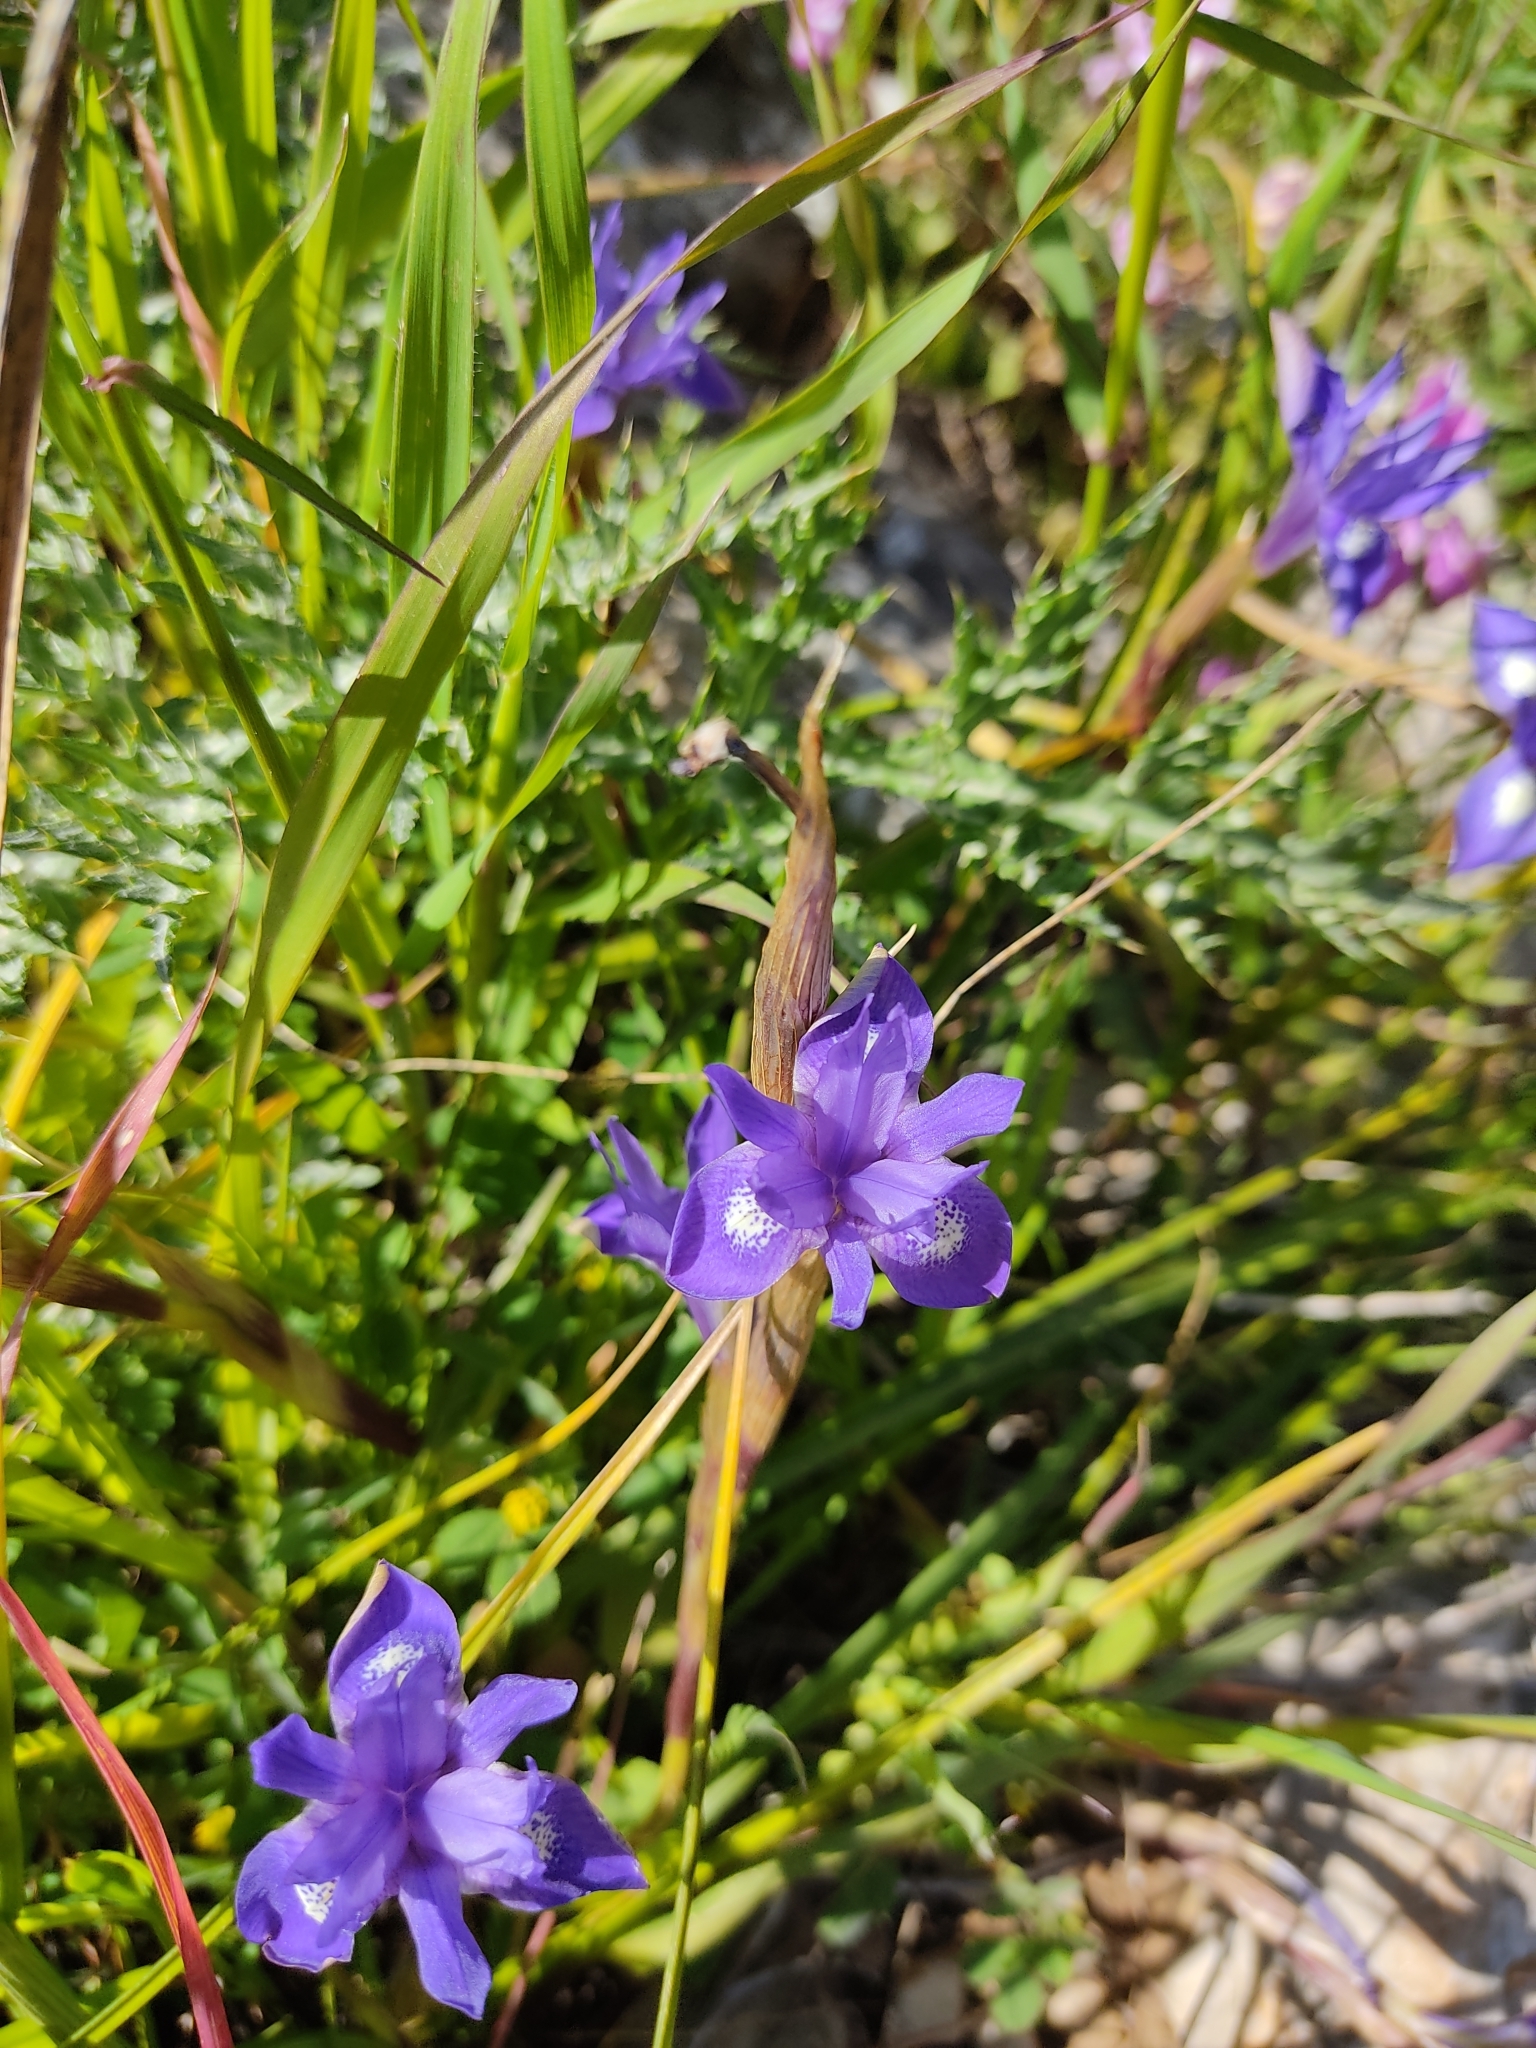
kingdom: Plantae
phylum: Tracheophyta
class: Liliopsida
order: Asparagales
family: Iridaceae
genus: Moraea
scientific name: Moraea sisyrinchium
